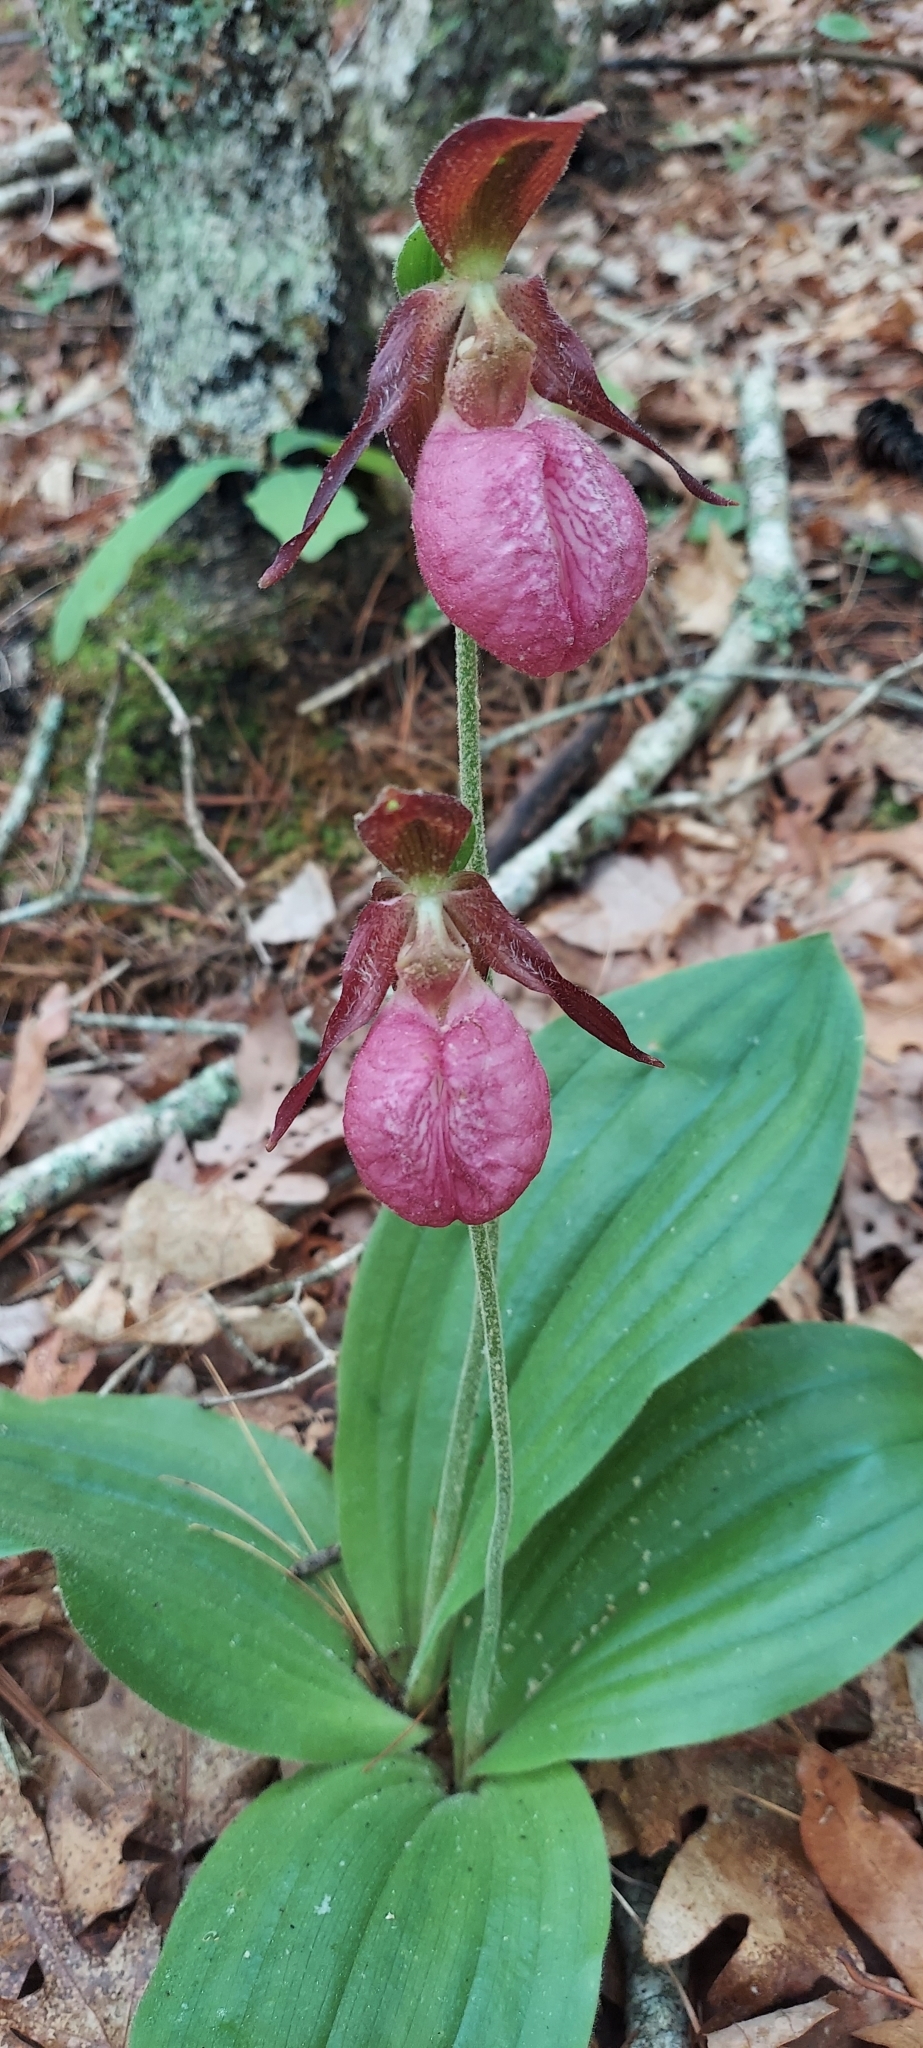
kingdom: Plantae
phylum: Tracheophyta
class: Liliopsida
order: Asparagales
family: Orchidaceae
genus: Cypripedium
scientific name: Cypripedium acaule
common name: Pink lady's-slipper
